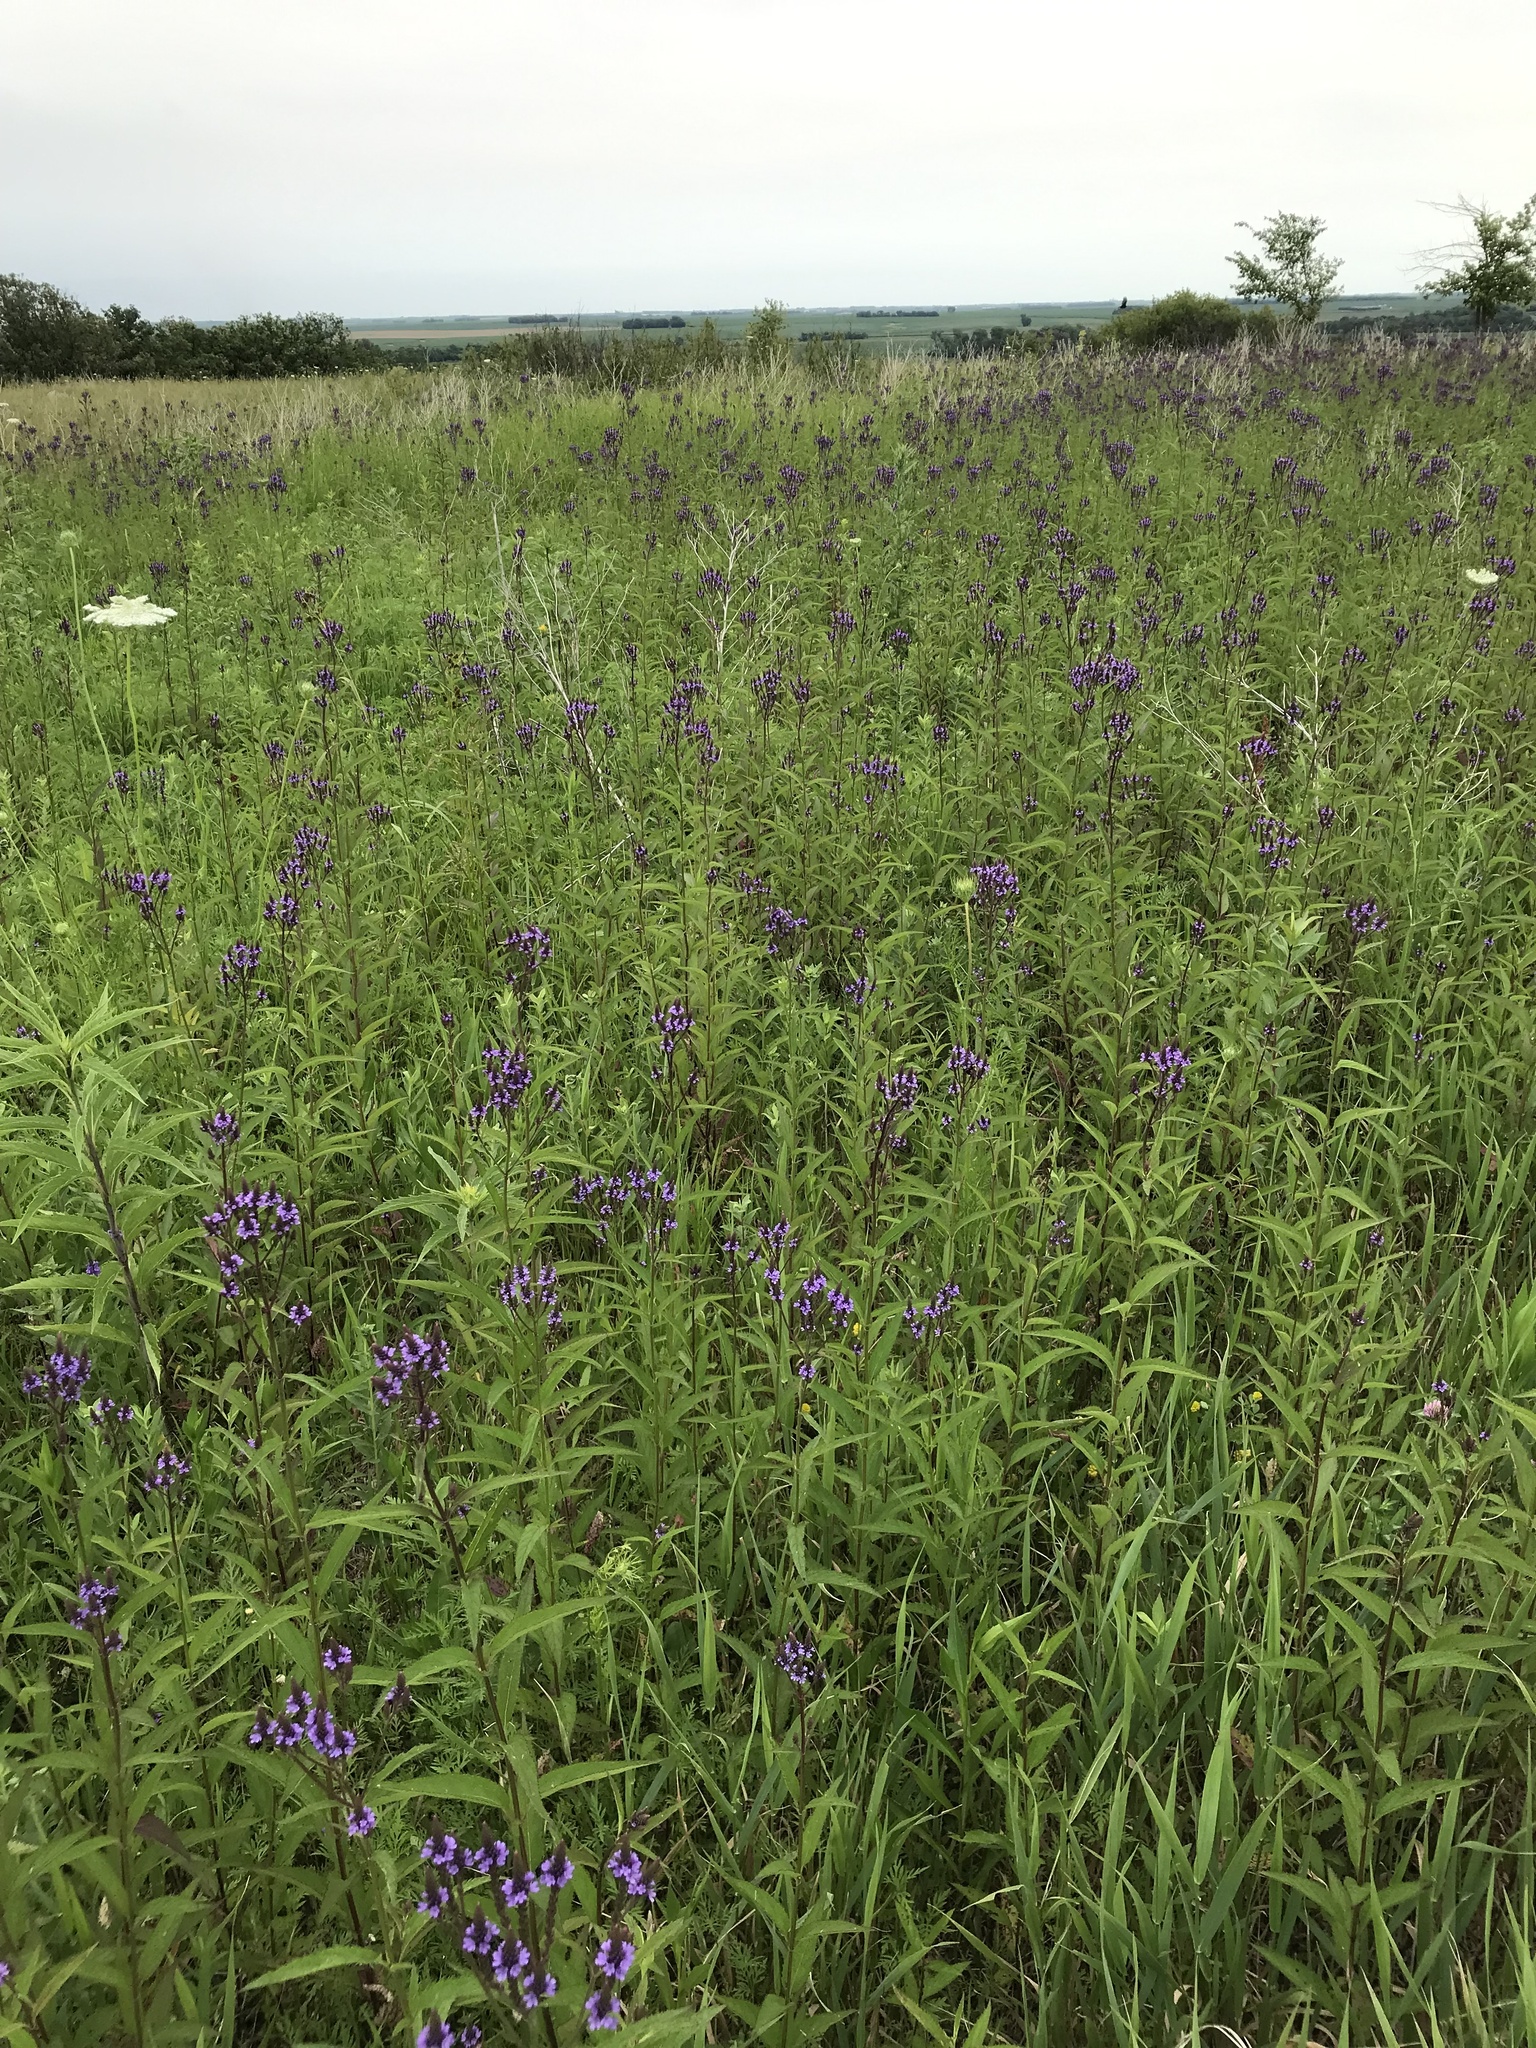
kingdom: Plantae
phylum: Tracheophyta
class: Magnoliopsida
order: Lamiales
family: Verbenaceae
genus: Verbena
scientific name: Verbena hastata
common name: American blue vervain
